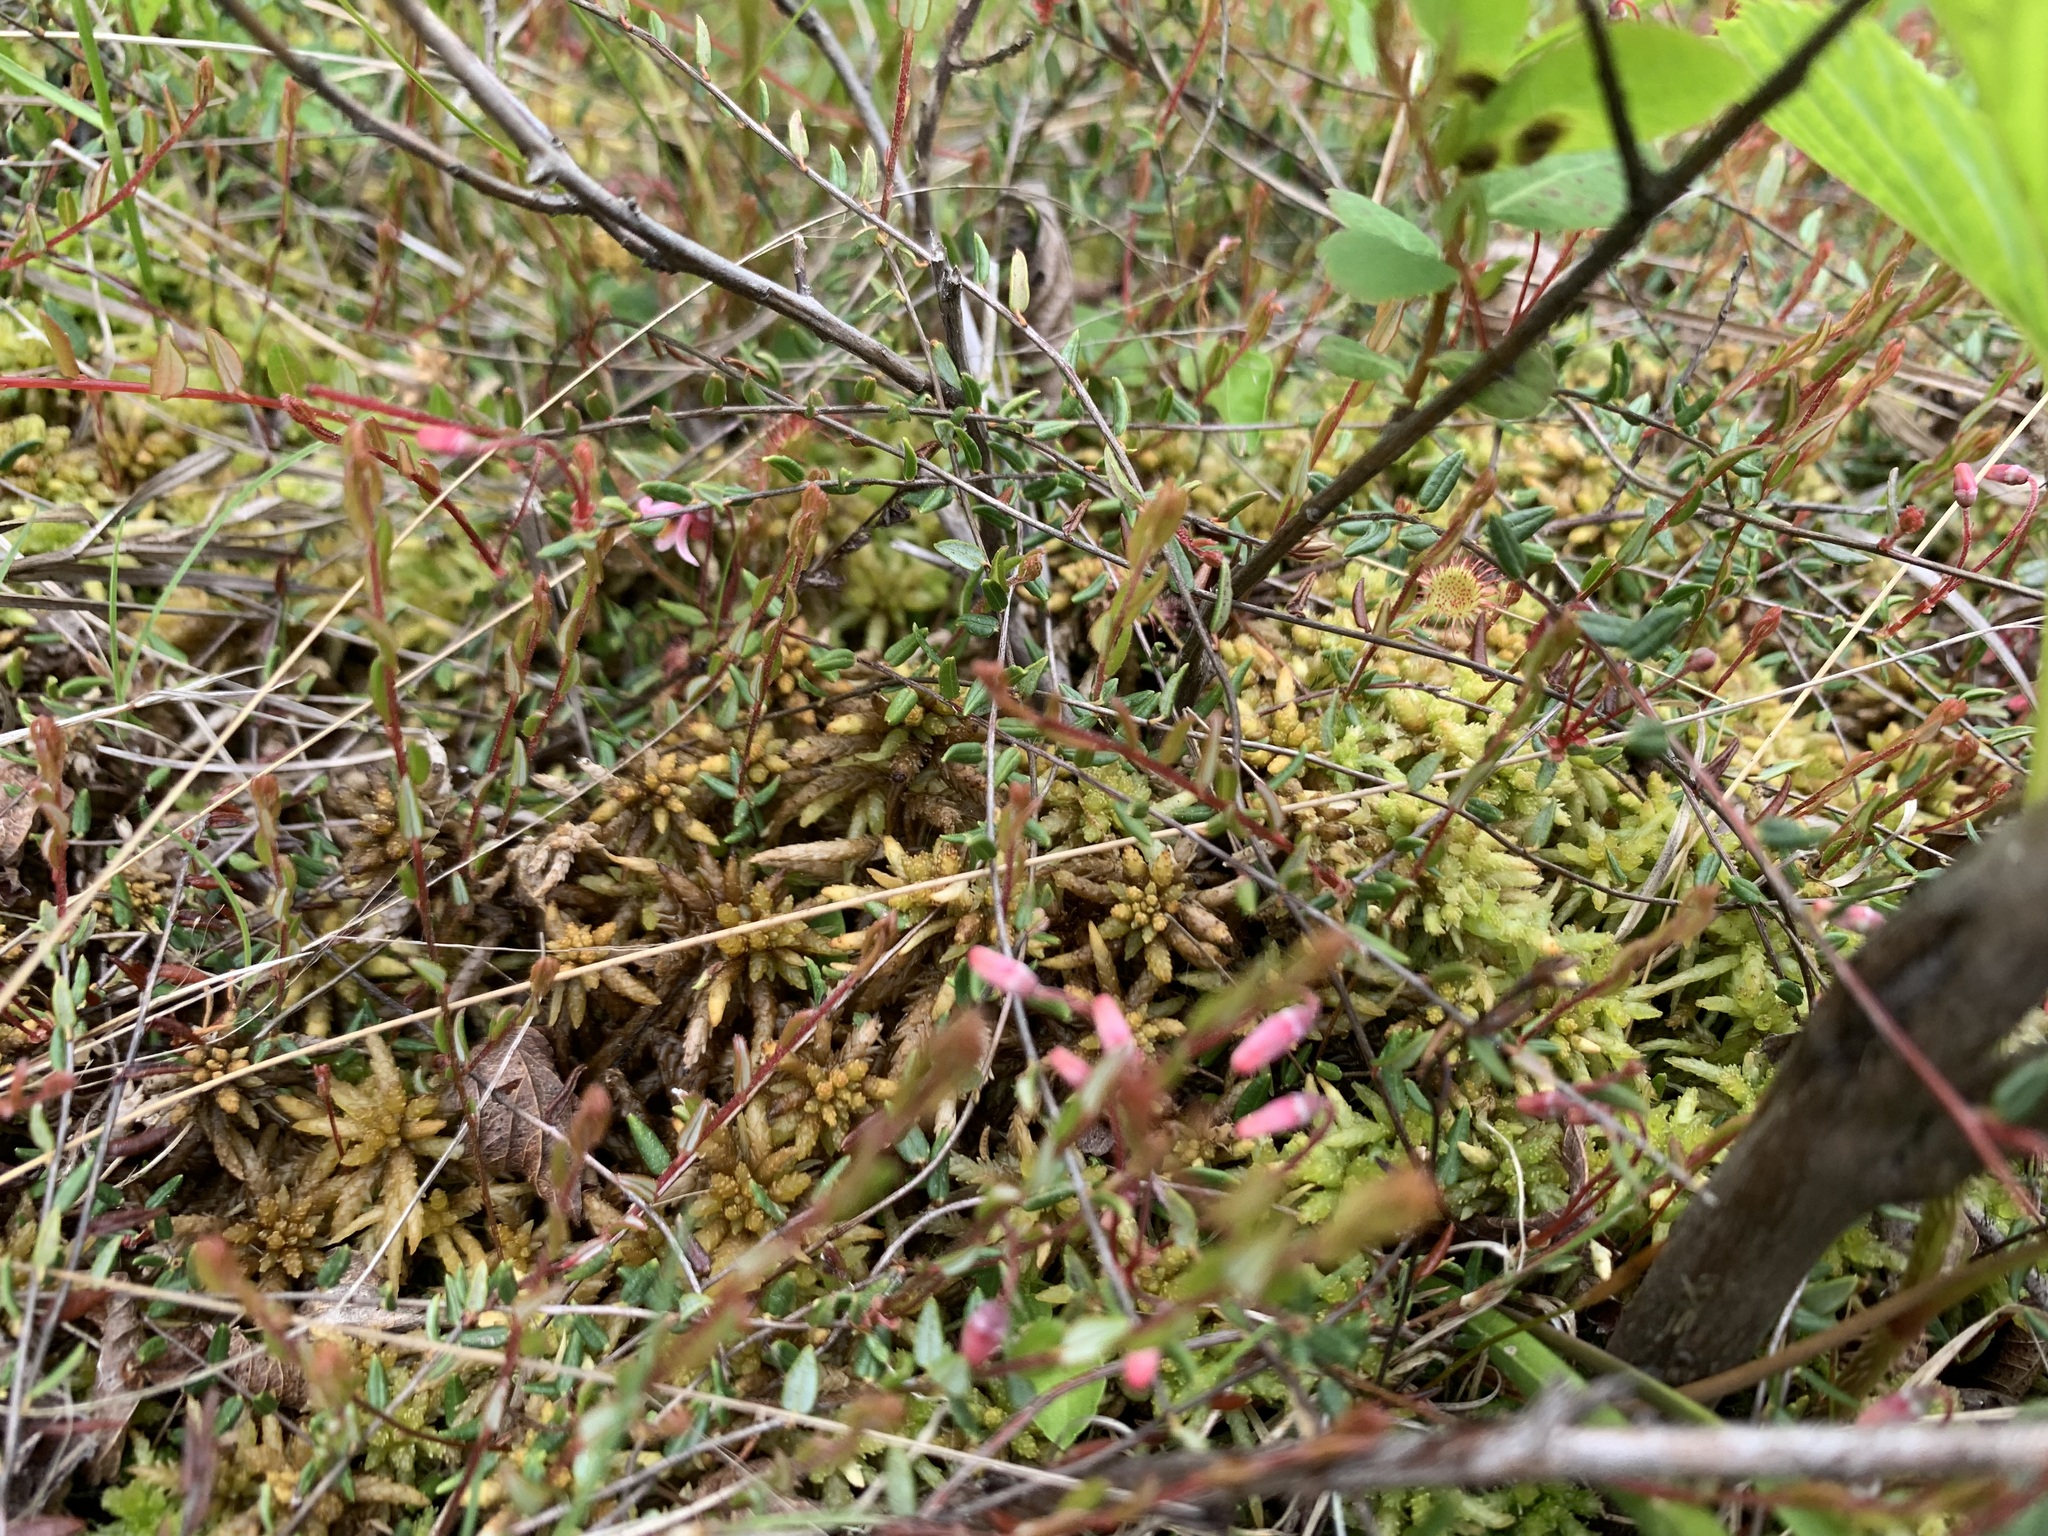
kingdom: Plantae
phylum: Tracheophyta
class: Magnoliopsida
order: Ericales
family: Ericaceae
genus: Vaccinium
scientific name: Vaccinium oxycoccos
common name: Cranberry
